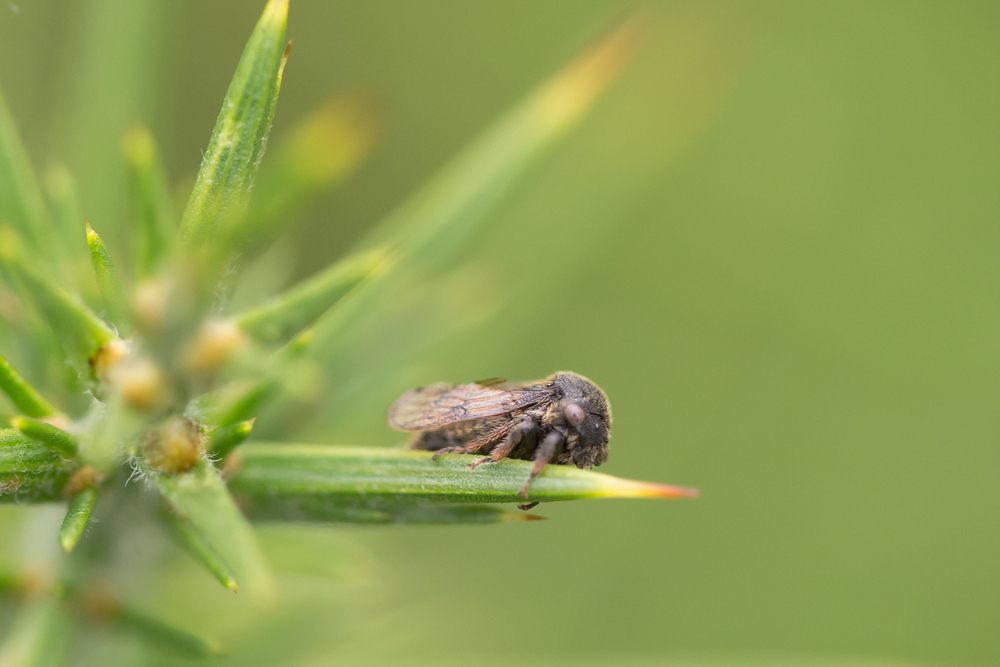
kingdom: Animalia
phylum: Arthropoda
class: Insecta
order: Hemiptera
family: Membracidae
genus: Gargara
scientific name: Gargara genistae
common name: Treehopper
